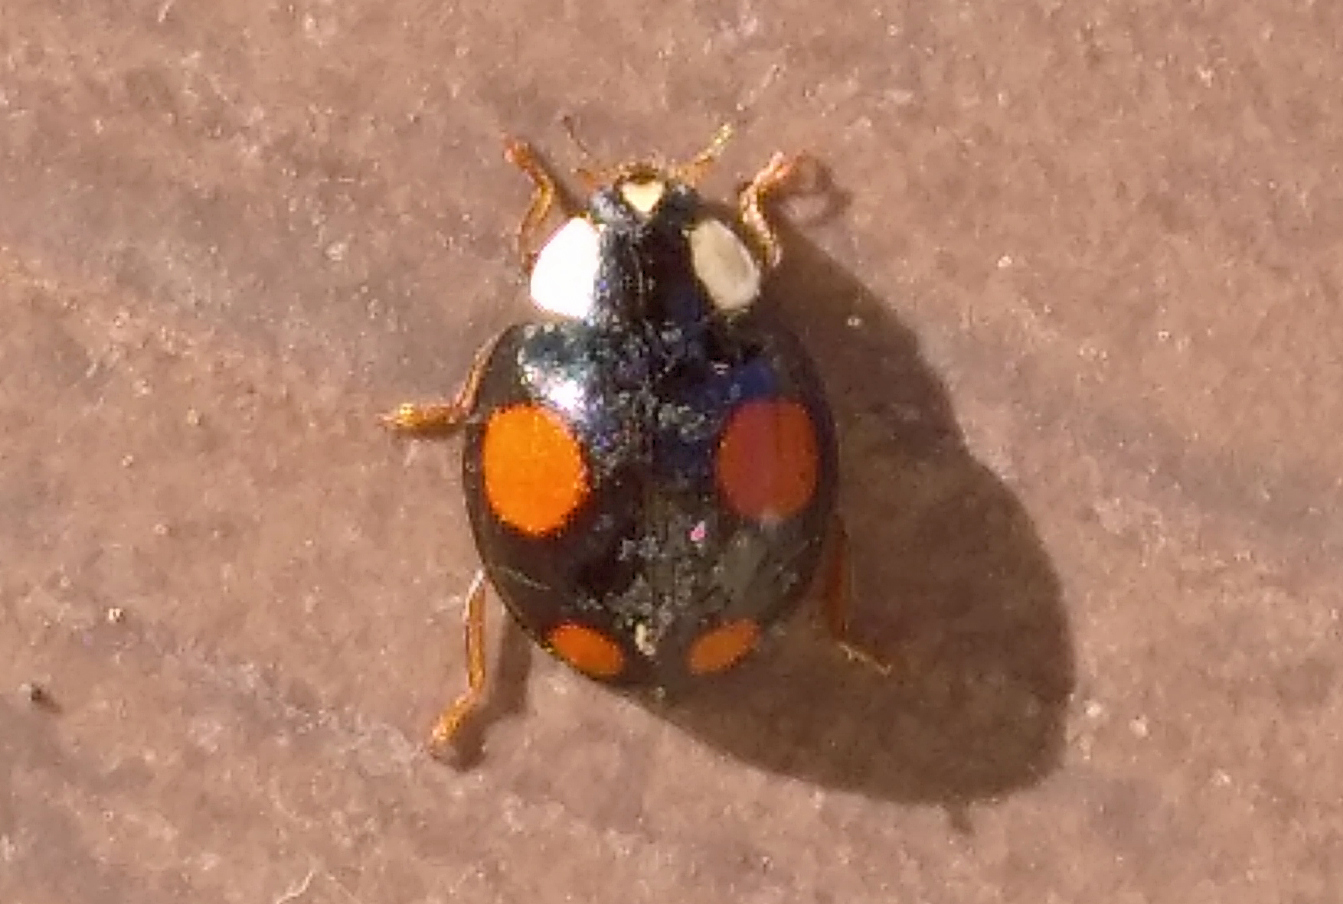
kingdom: Animalia
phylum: Arthropoda
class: Insecta
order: Coleoptera
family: Coccinellidae
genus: Harmonia
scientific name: Harmonia axyridis
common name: Harlequin ladybird
